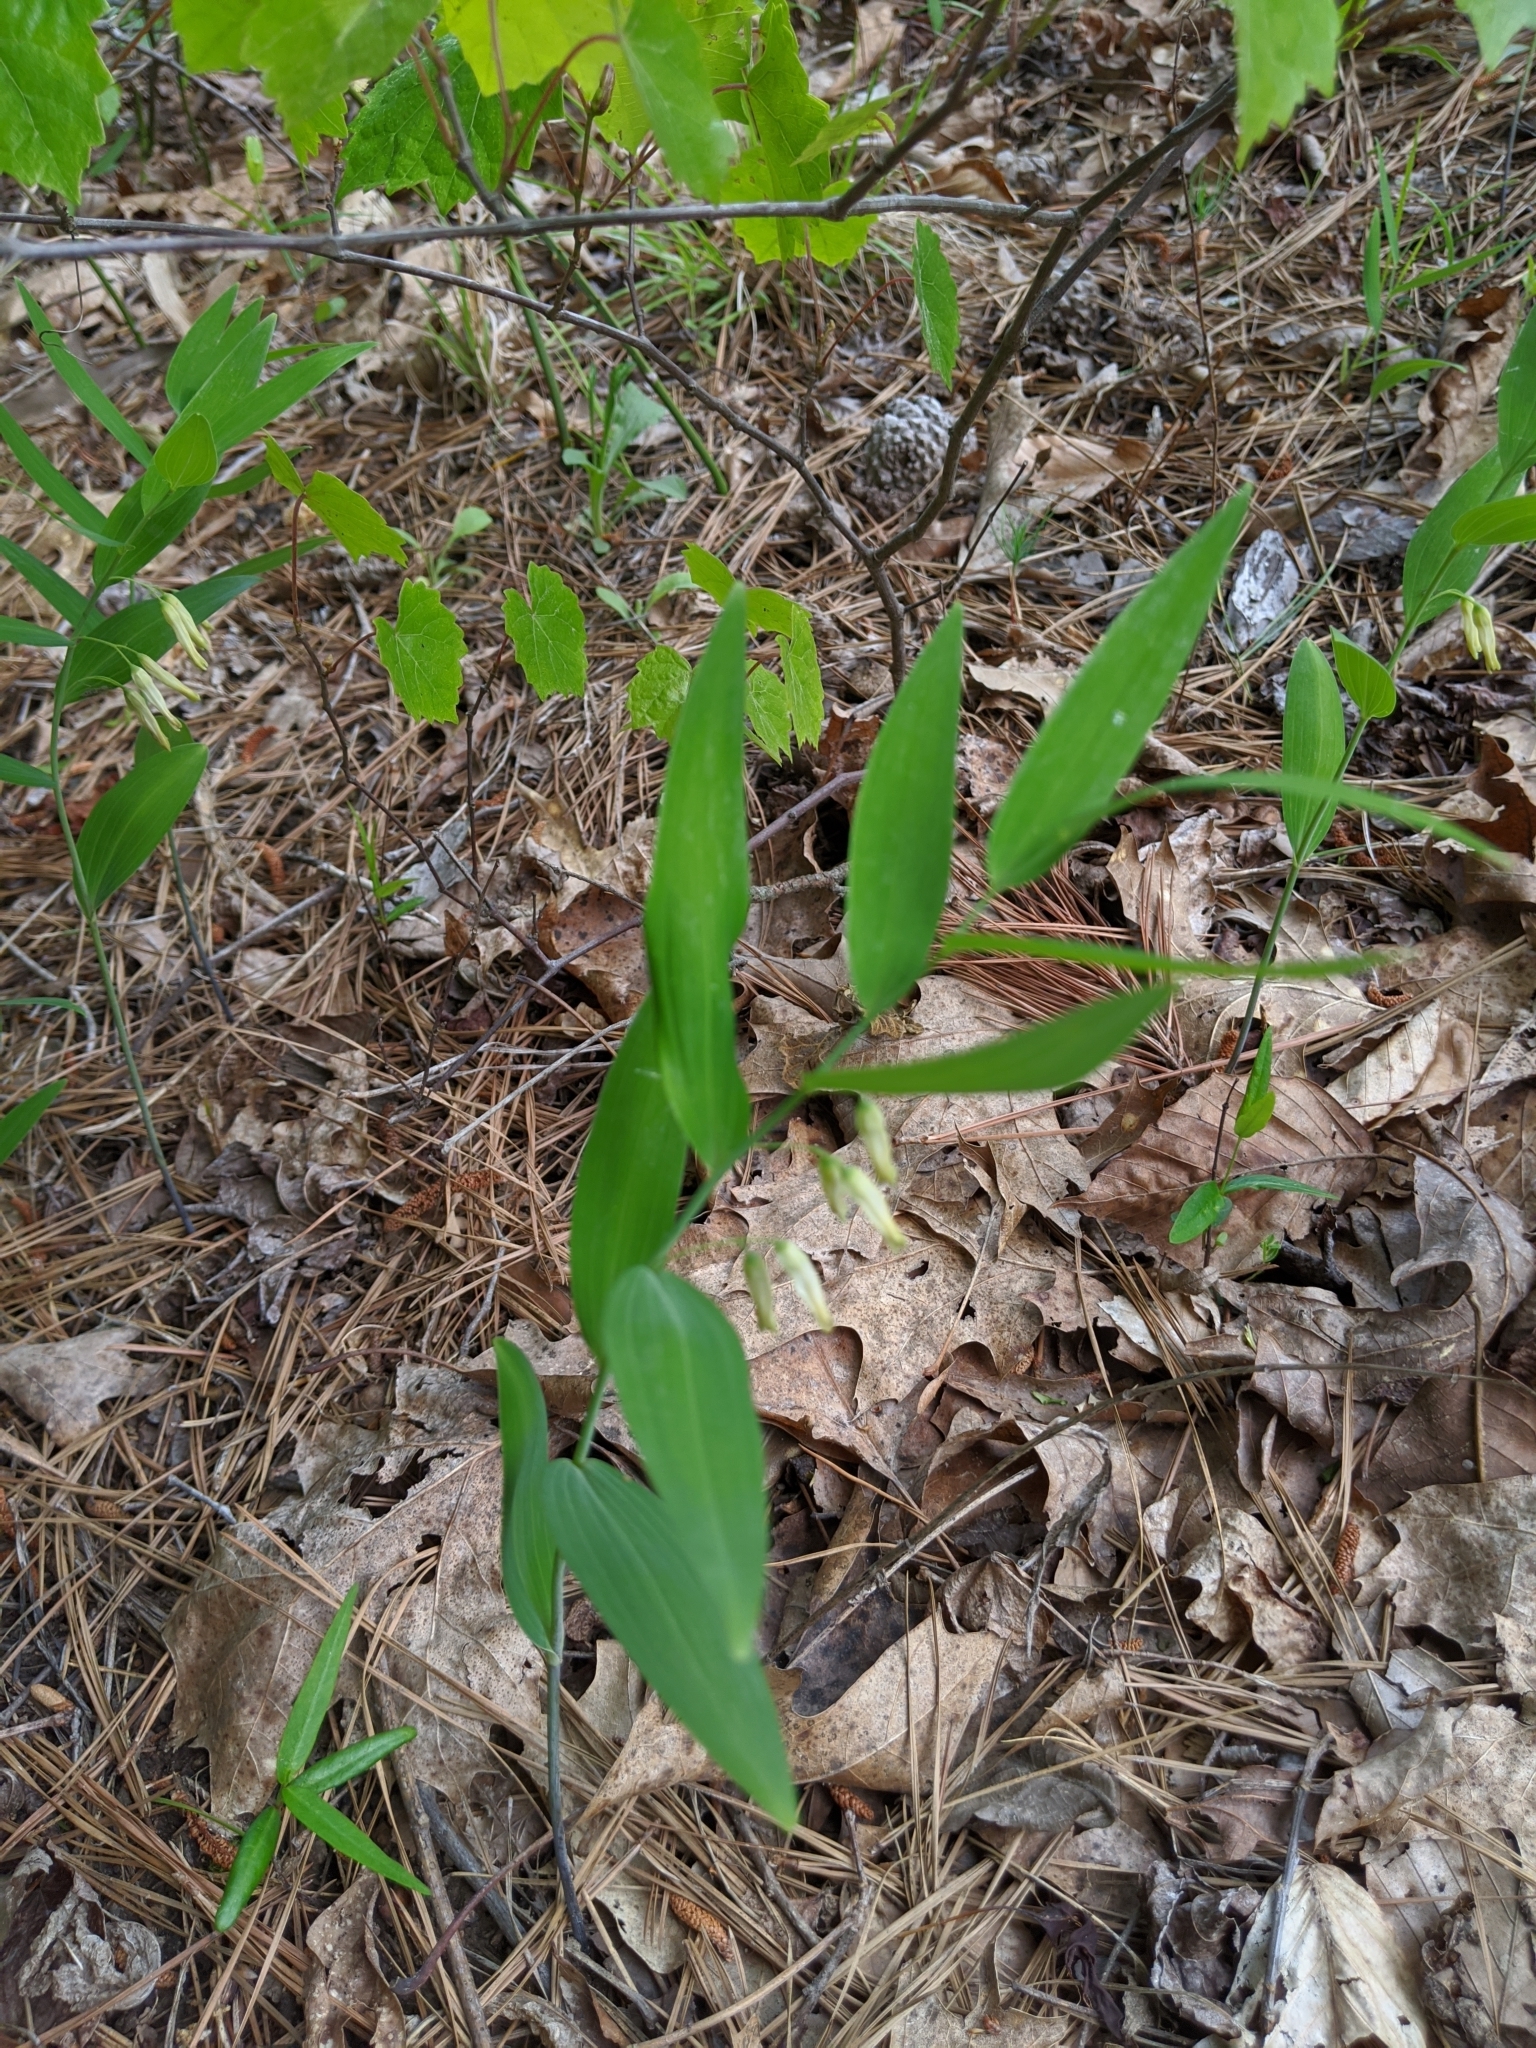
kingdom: Plantae
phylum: Tracheophyta
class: Liliopsida
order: Asparagales
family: Asparagaceae
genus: Polygonatum
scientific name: Polygonatum biflorum
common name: American solomon's-seal
